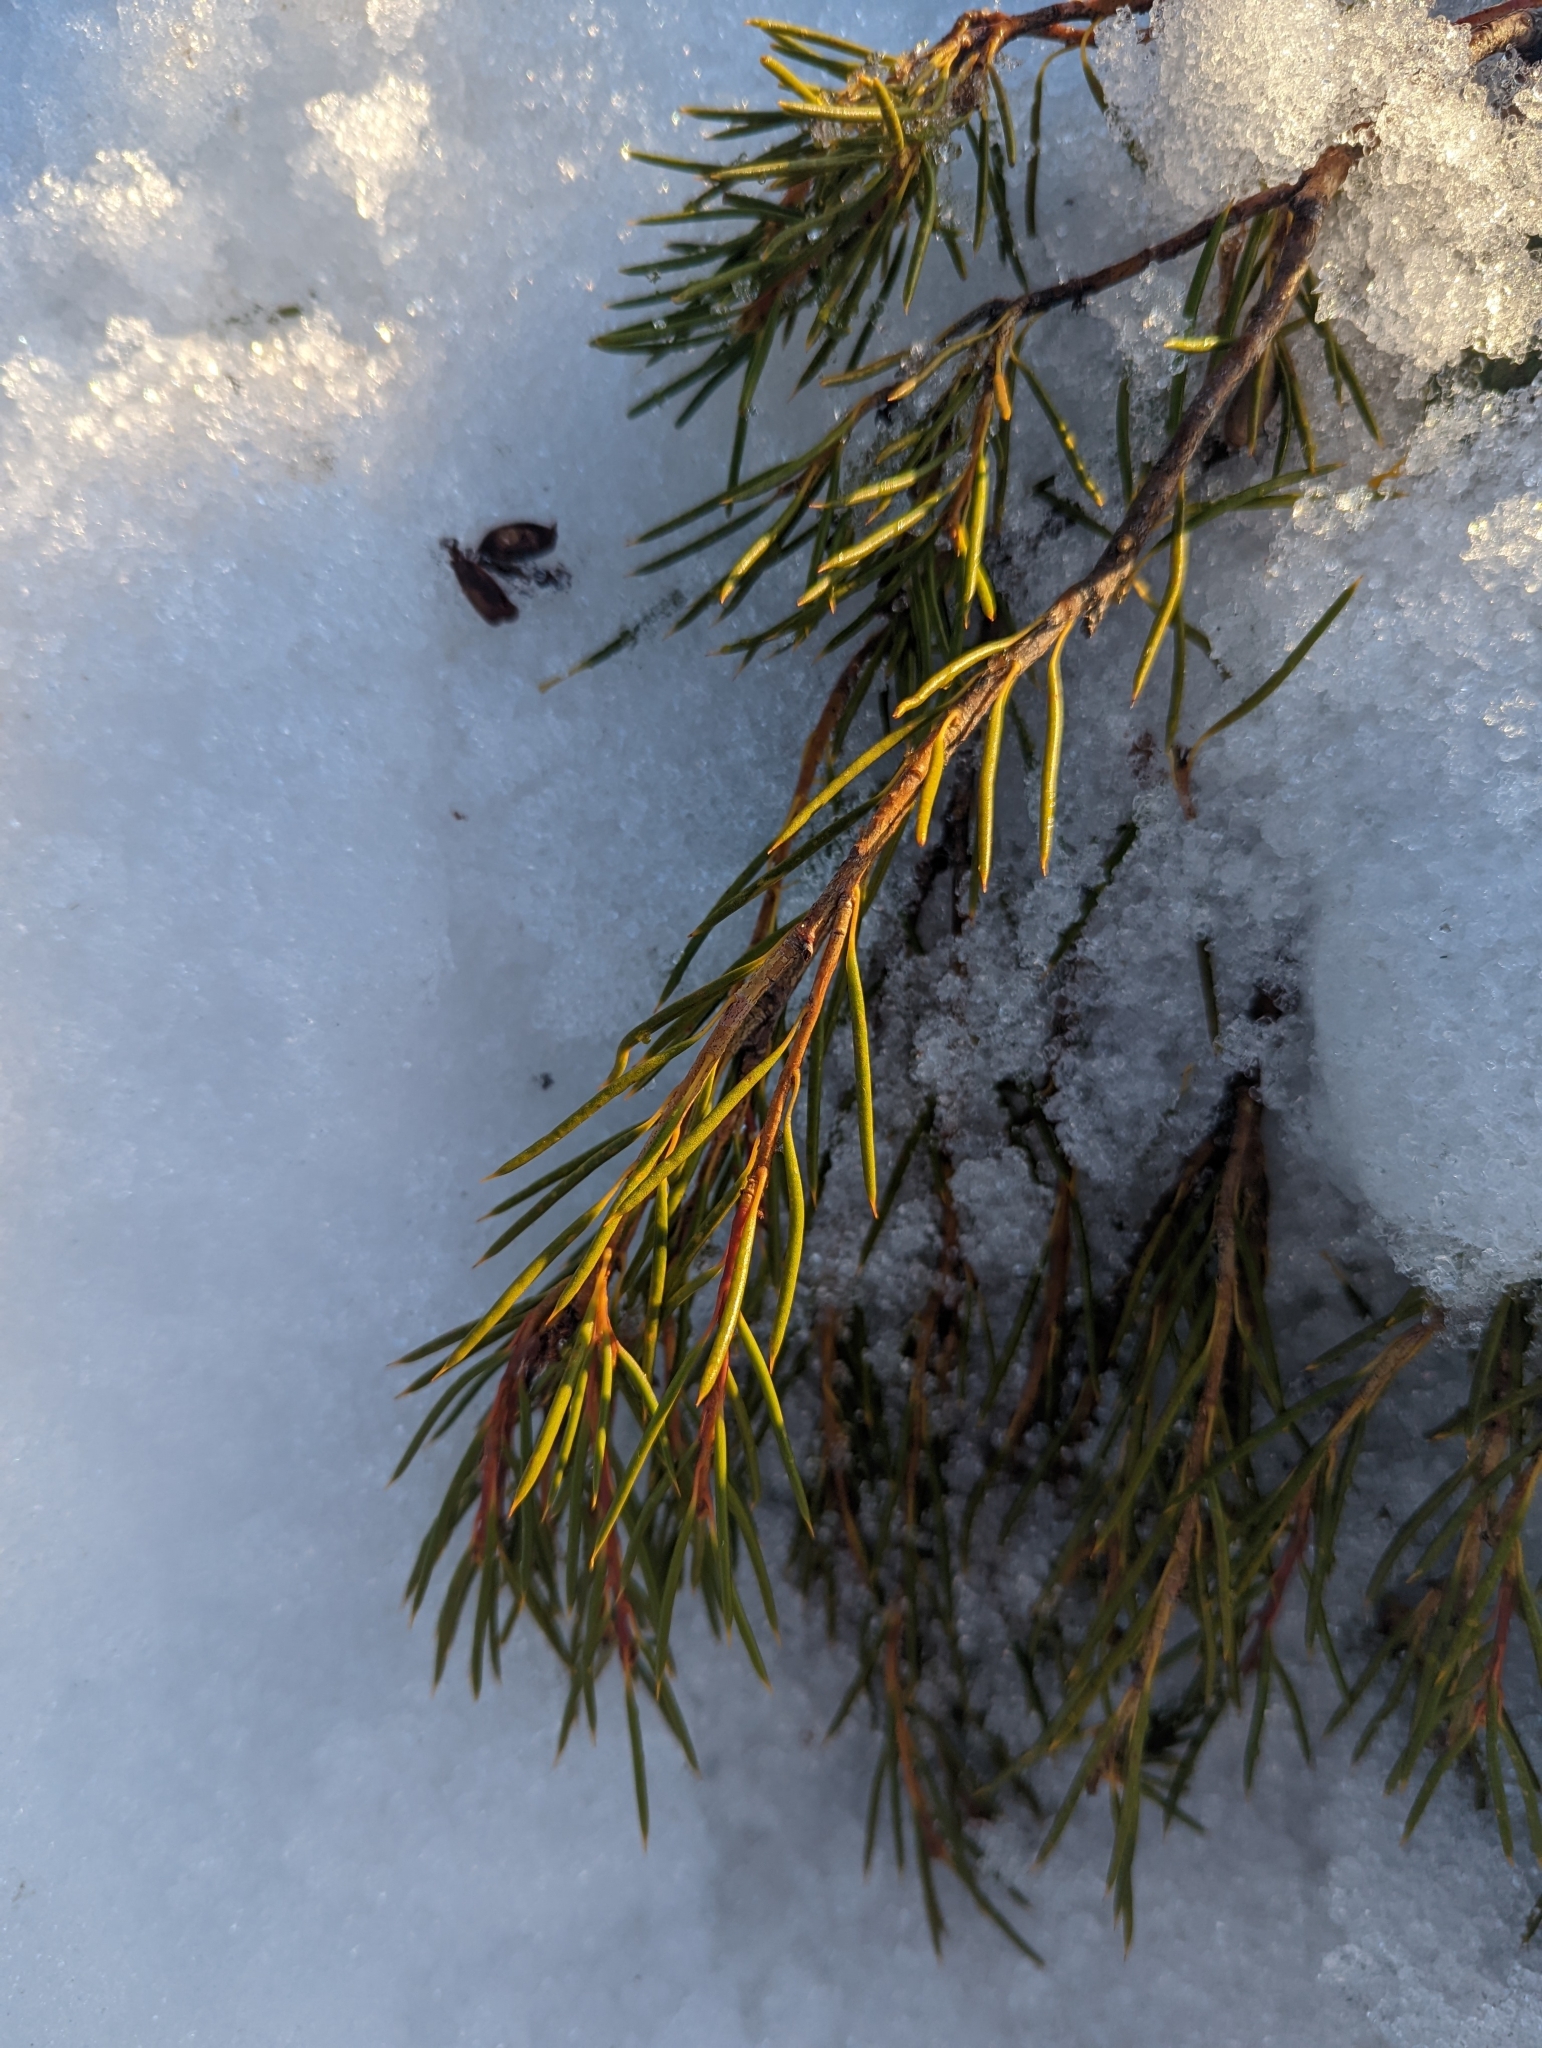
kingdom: Plantae
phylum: Tracheophyta
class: Magnoliopsida
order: Proteales
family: Proteaceae
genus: Orites
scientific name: Orites acicularis
